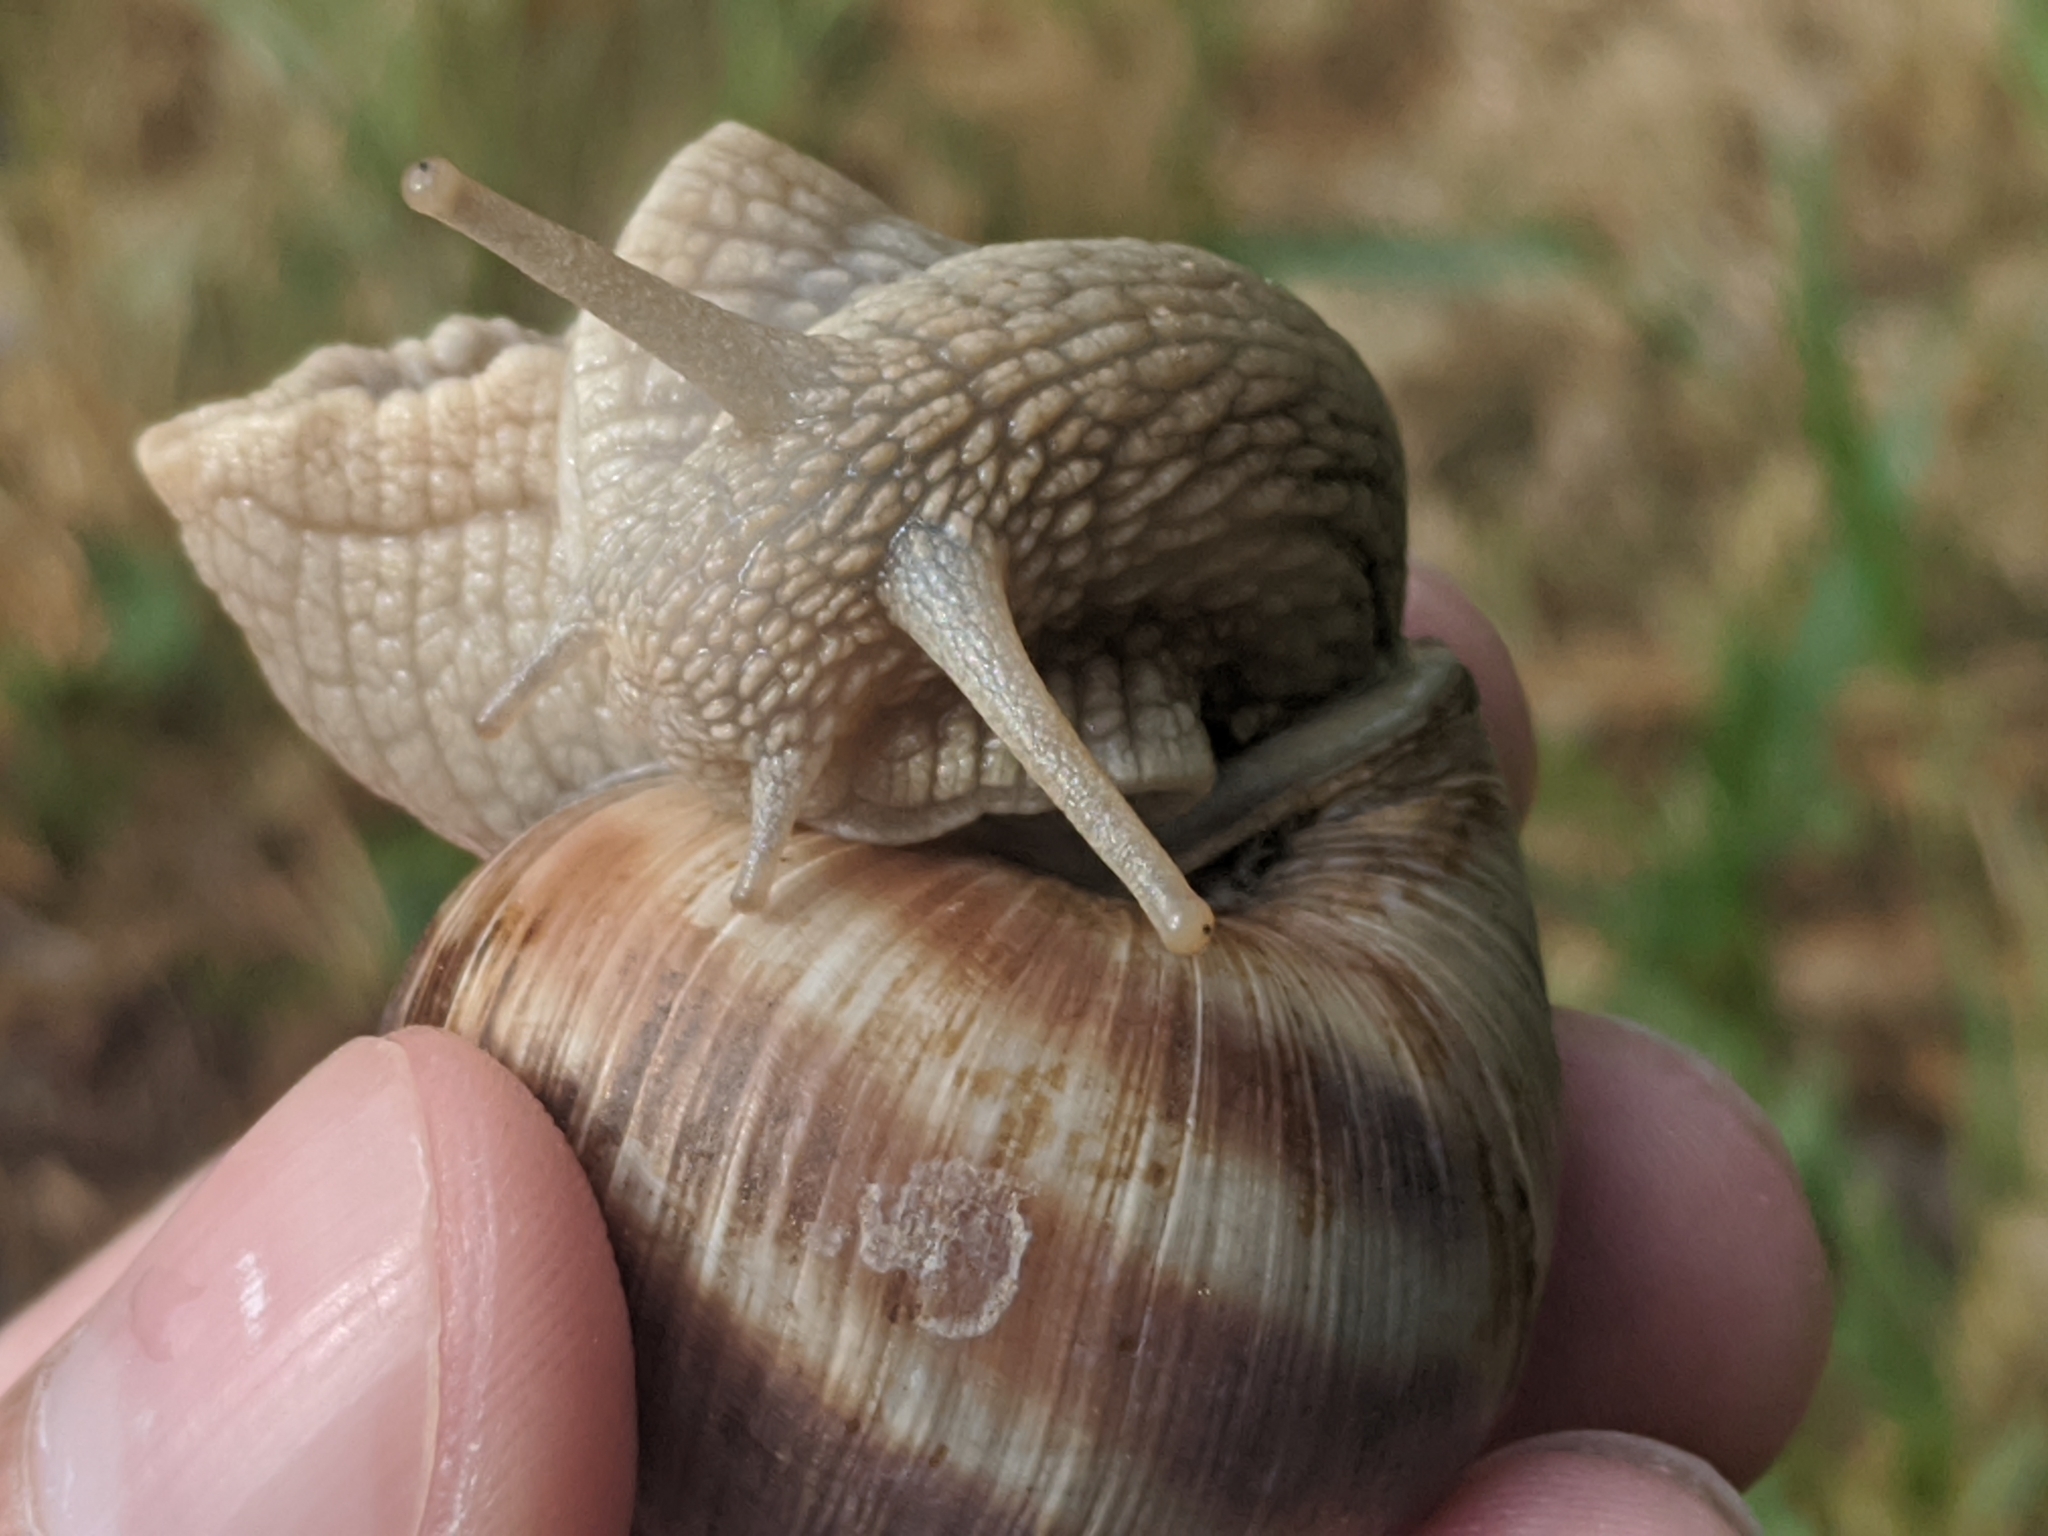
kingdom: Animalia
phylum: Mollusca
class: Gastropoda
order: Stylommatophora
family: Helicidae
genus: Helix
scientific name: Helix pomatia
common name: Roman snail
